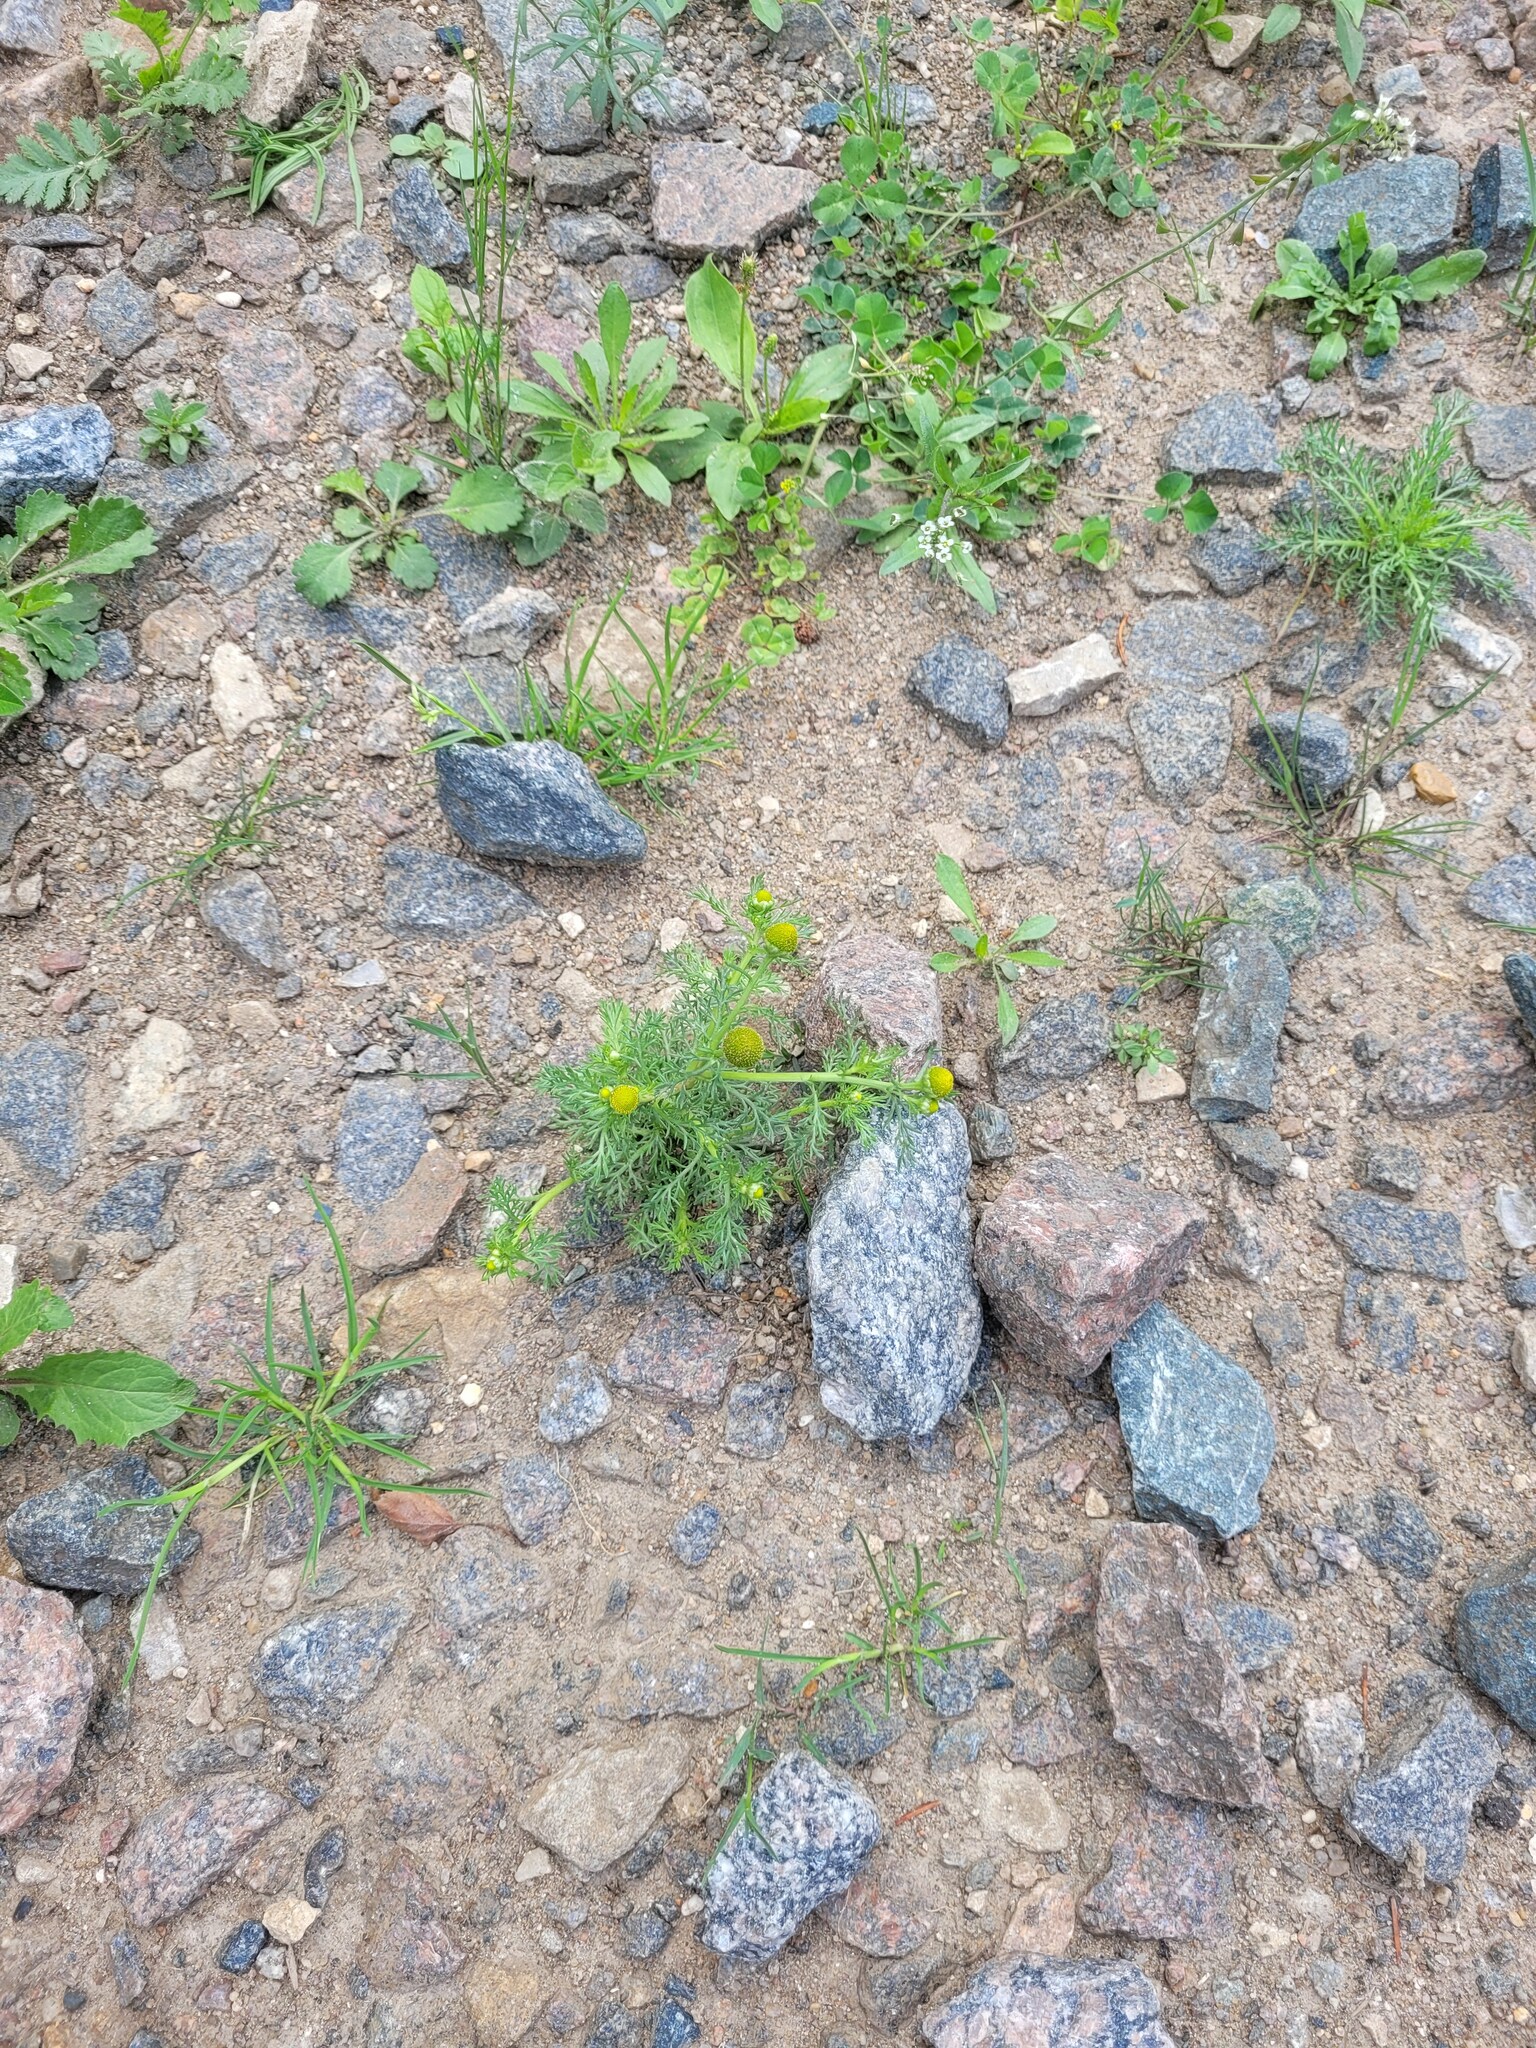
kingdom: Plantae
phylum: Tracheophyta
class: Magnoliopsida
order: Asterales
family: Asteraceae
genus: Matricaria
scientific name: Matricaria discoidea
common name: Disc mayweed
